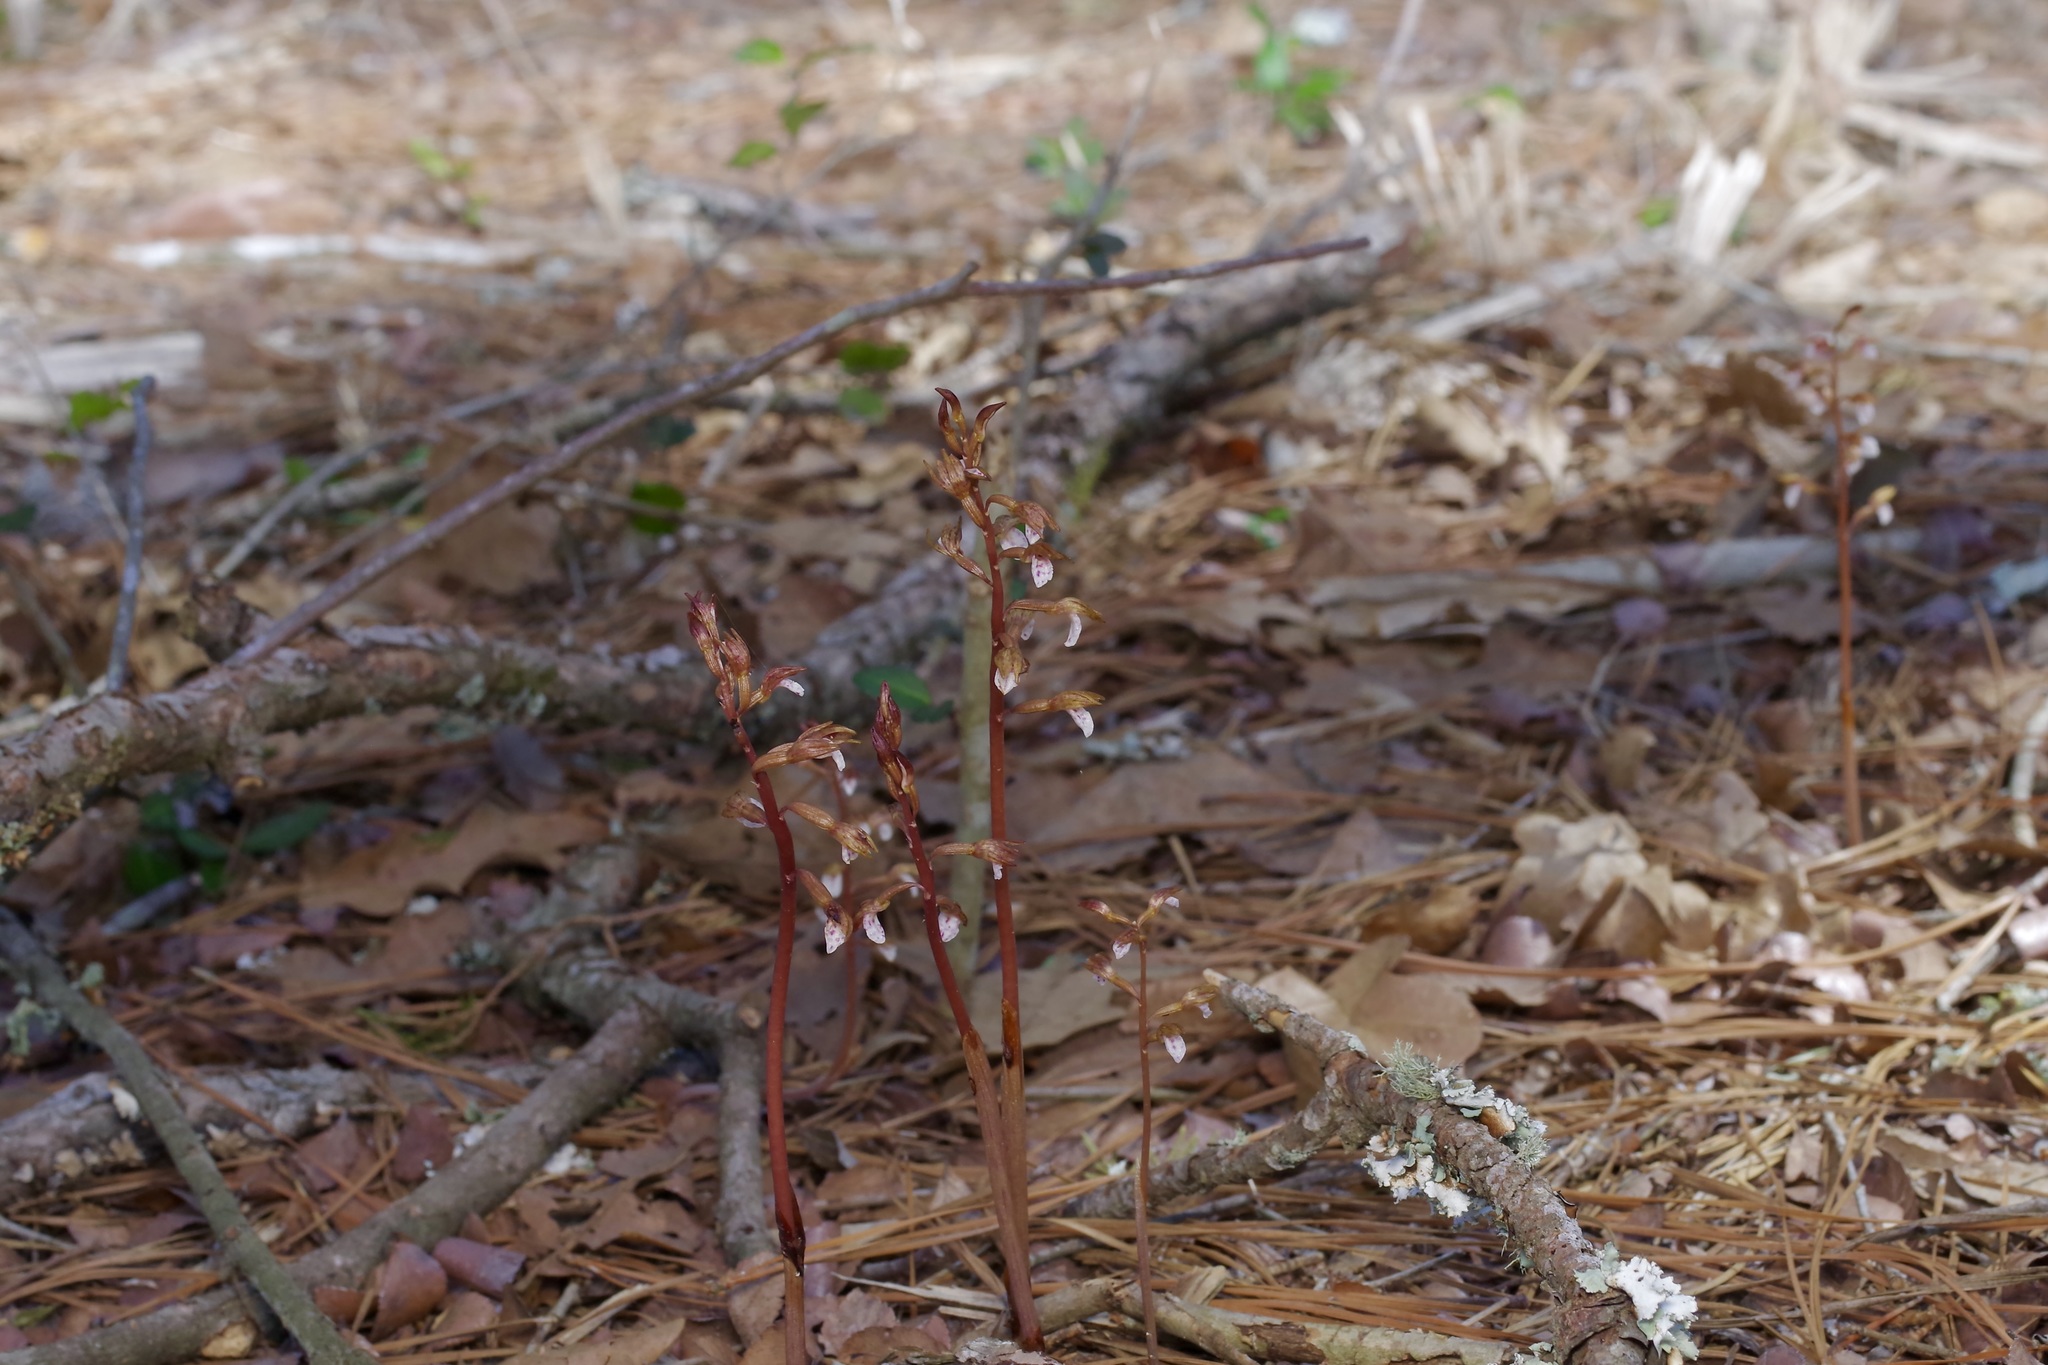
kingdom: Plantae
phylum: Tracheophyta
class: Liliopsida
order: Asparagales
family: Orchidaceae
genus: Corallorhiza
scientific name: Corallorhiza wisteriana
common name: Spring coralroot
